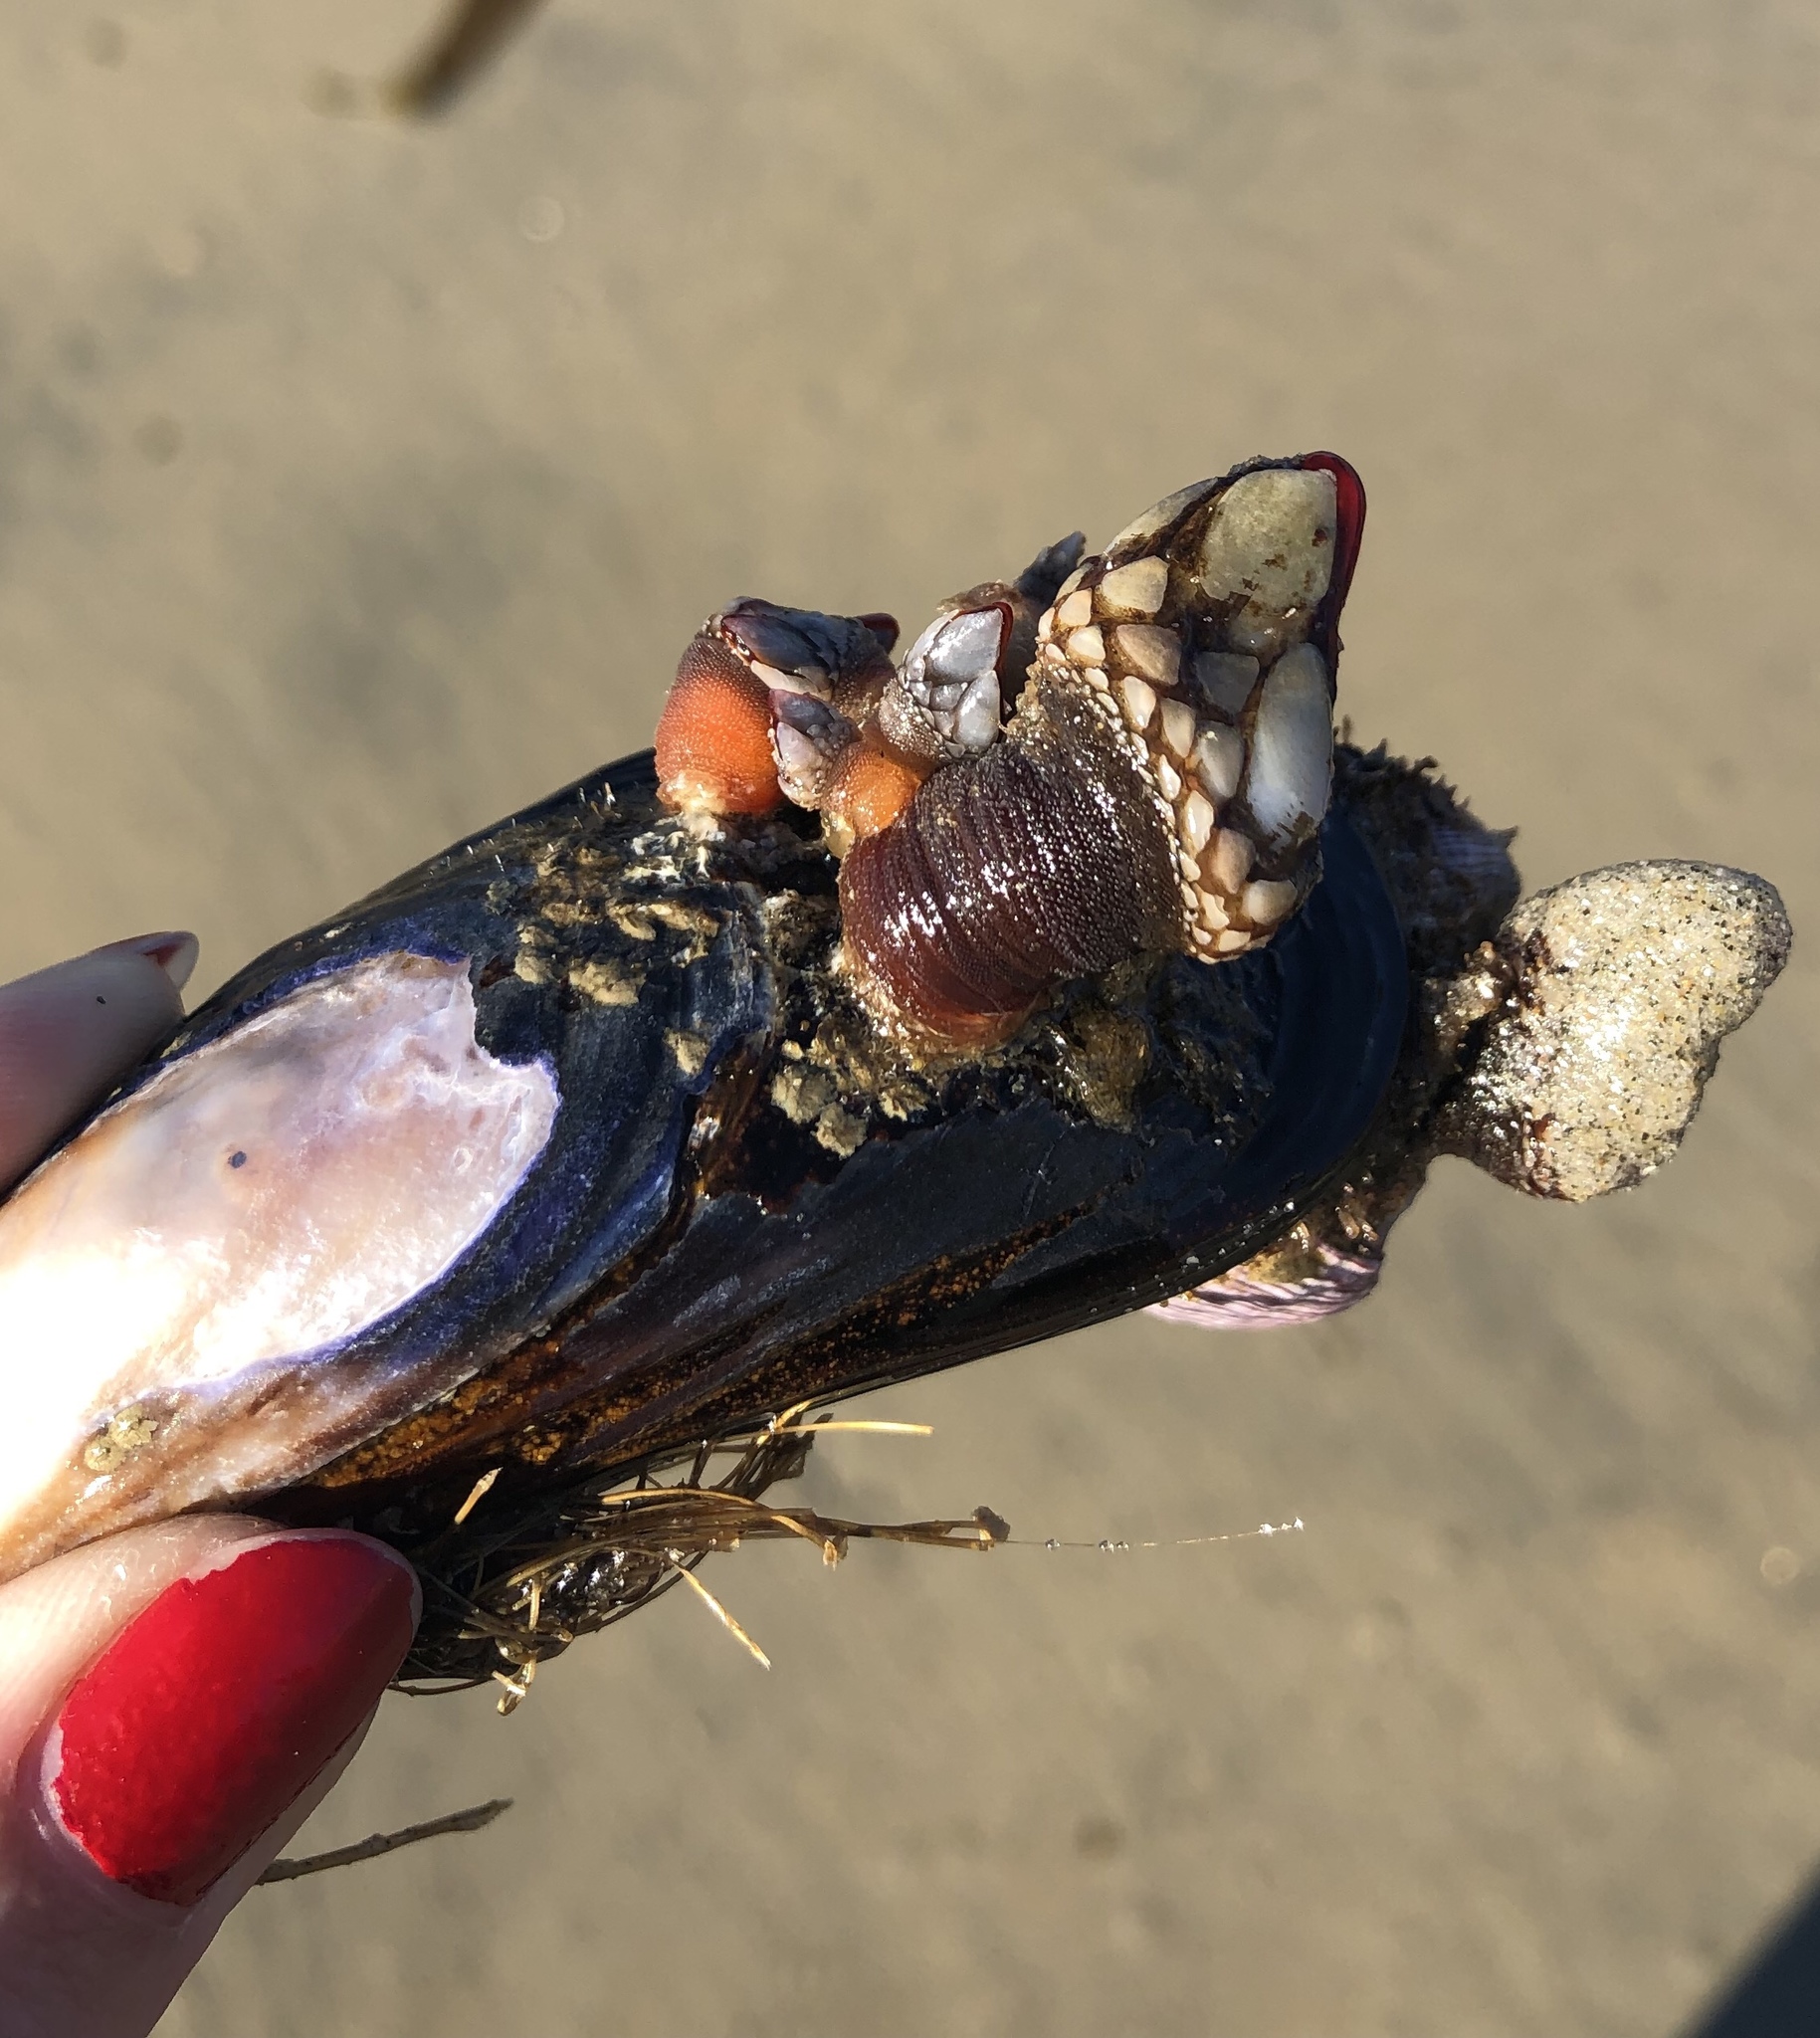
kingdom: Animalia
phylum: Arthropoda
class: Maxillopoda
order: Pedunculata
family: Pollicipedidae
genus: Pollicipes
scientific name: Pollicipes polymerus
